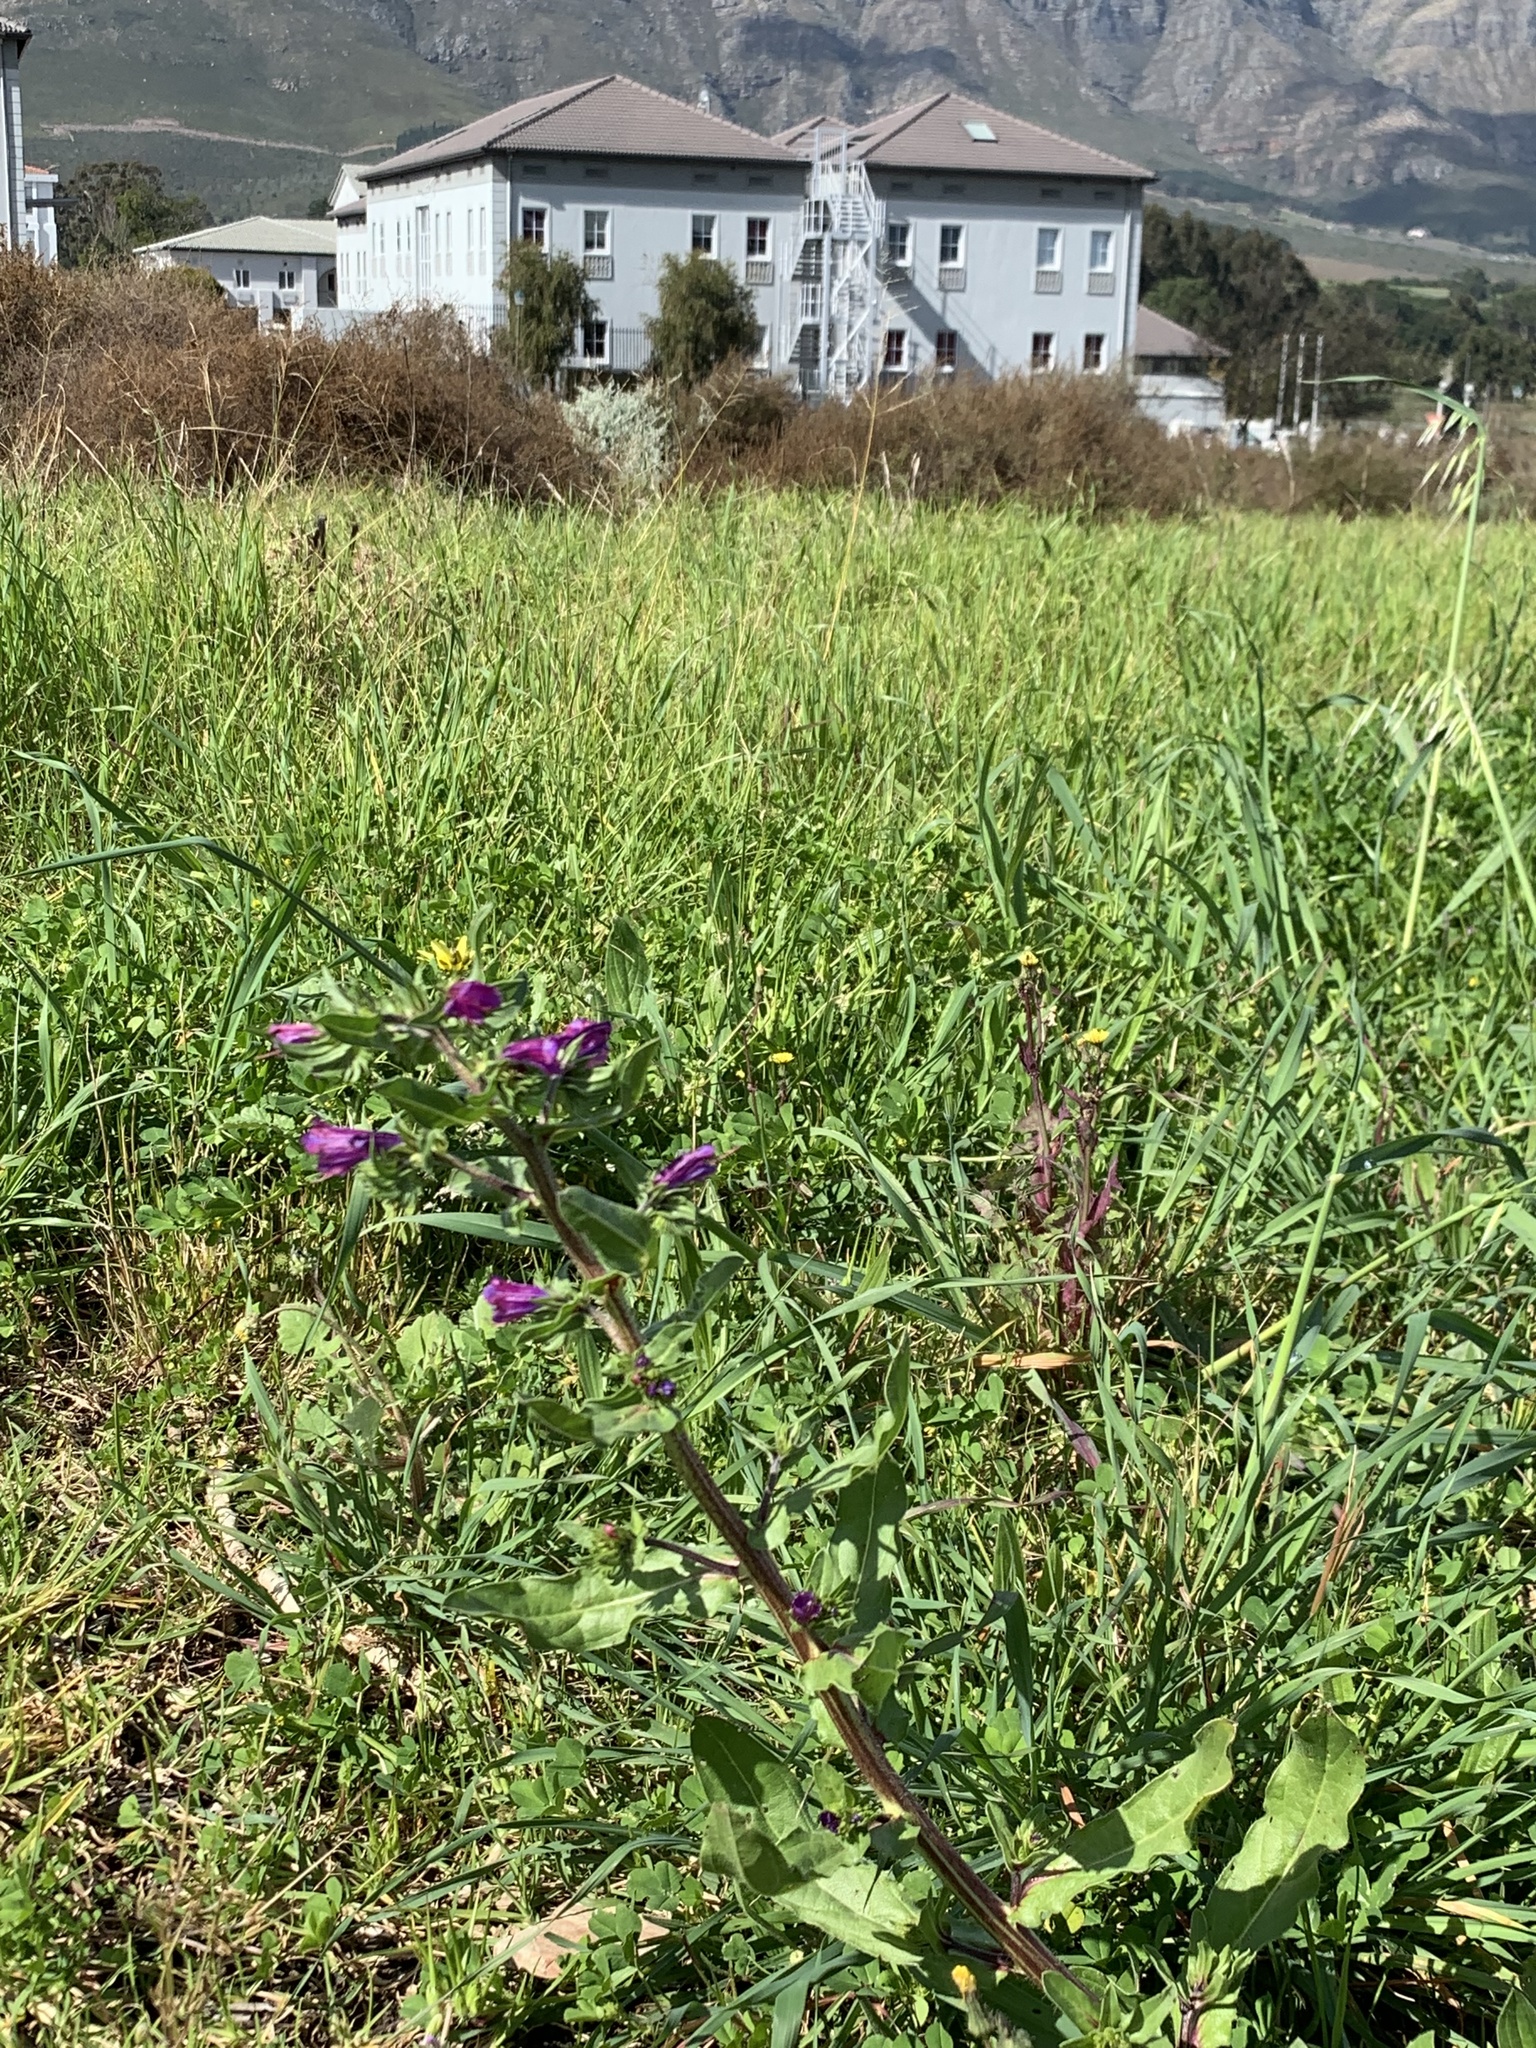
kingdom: Plantae
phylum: Tracheophyta
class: Magnoliopsida
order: Boraginales
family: Boraginaceae
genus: Echium
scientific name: Echium plantagineum
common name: Purple viper's-bugloss
